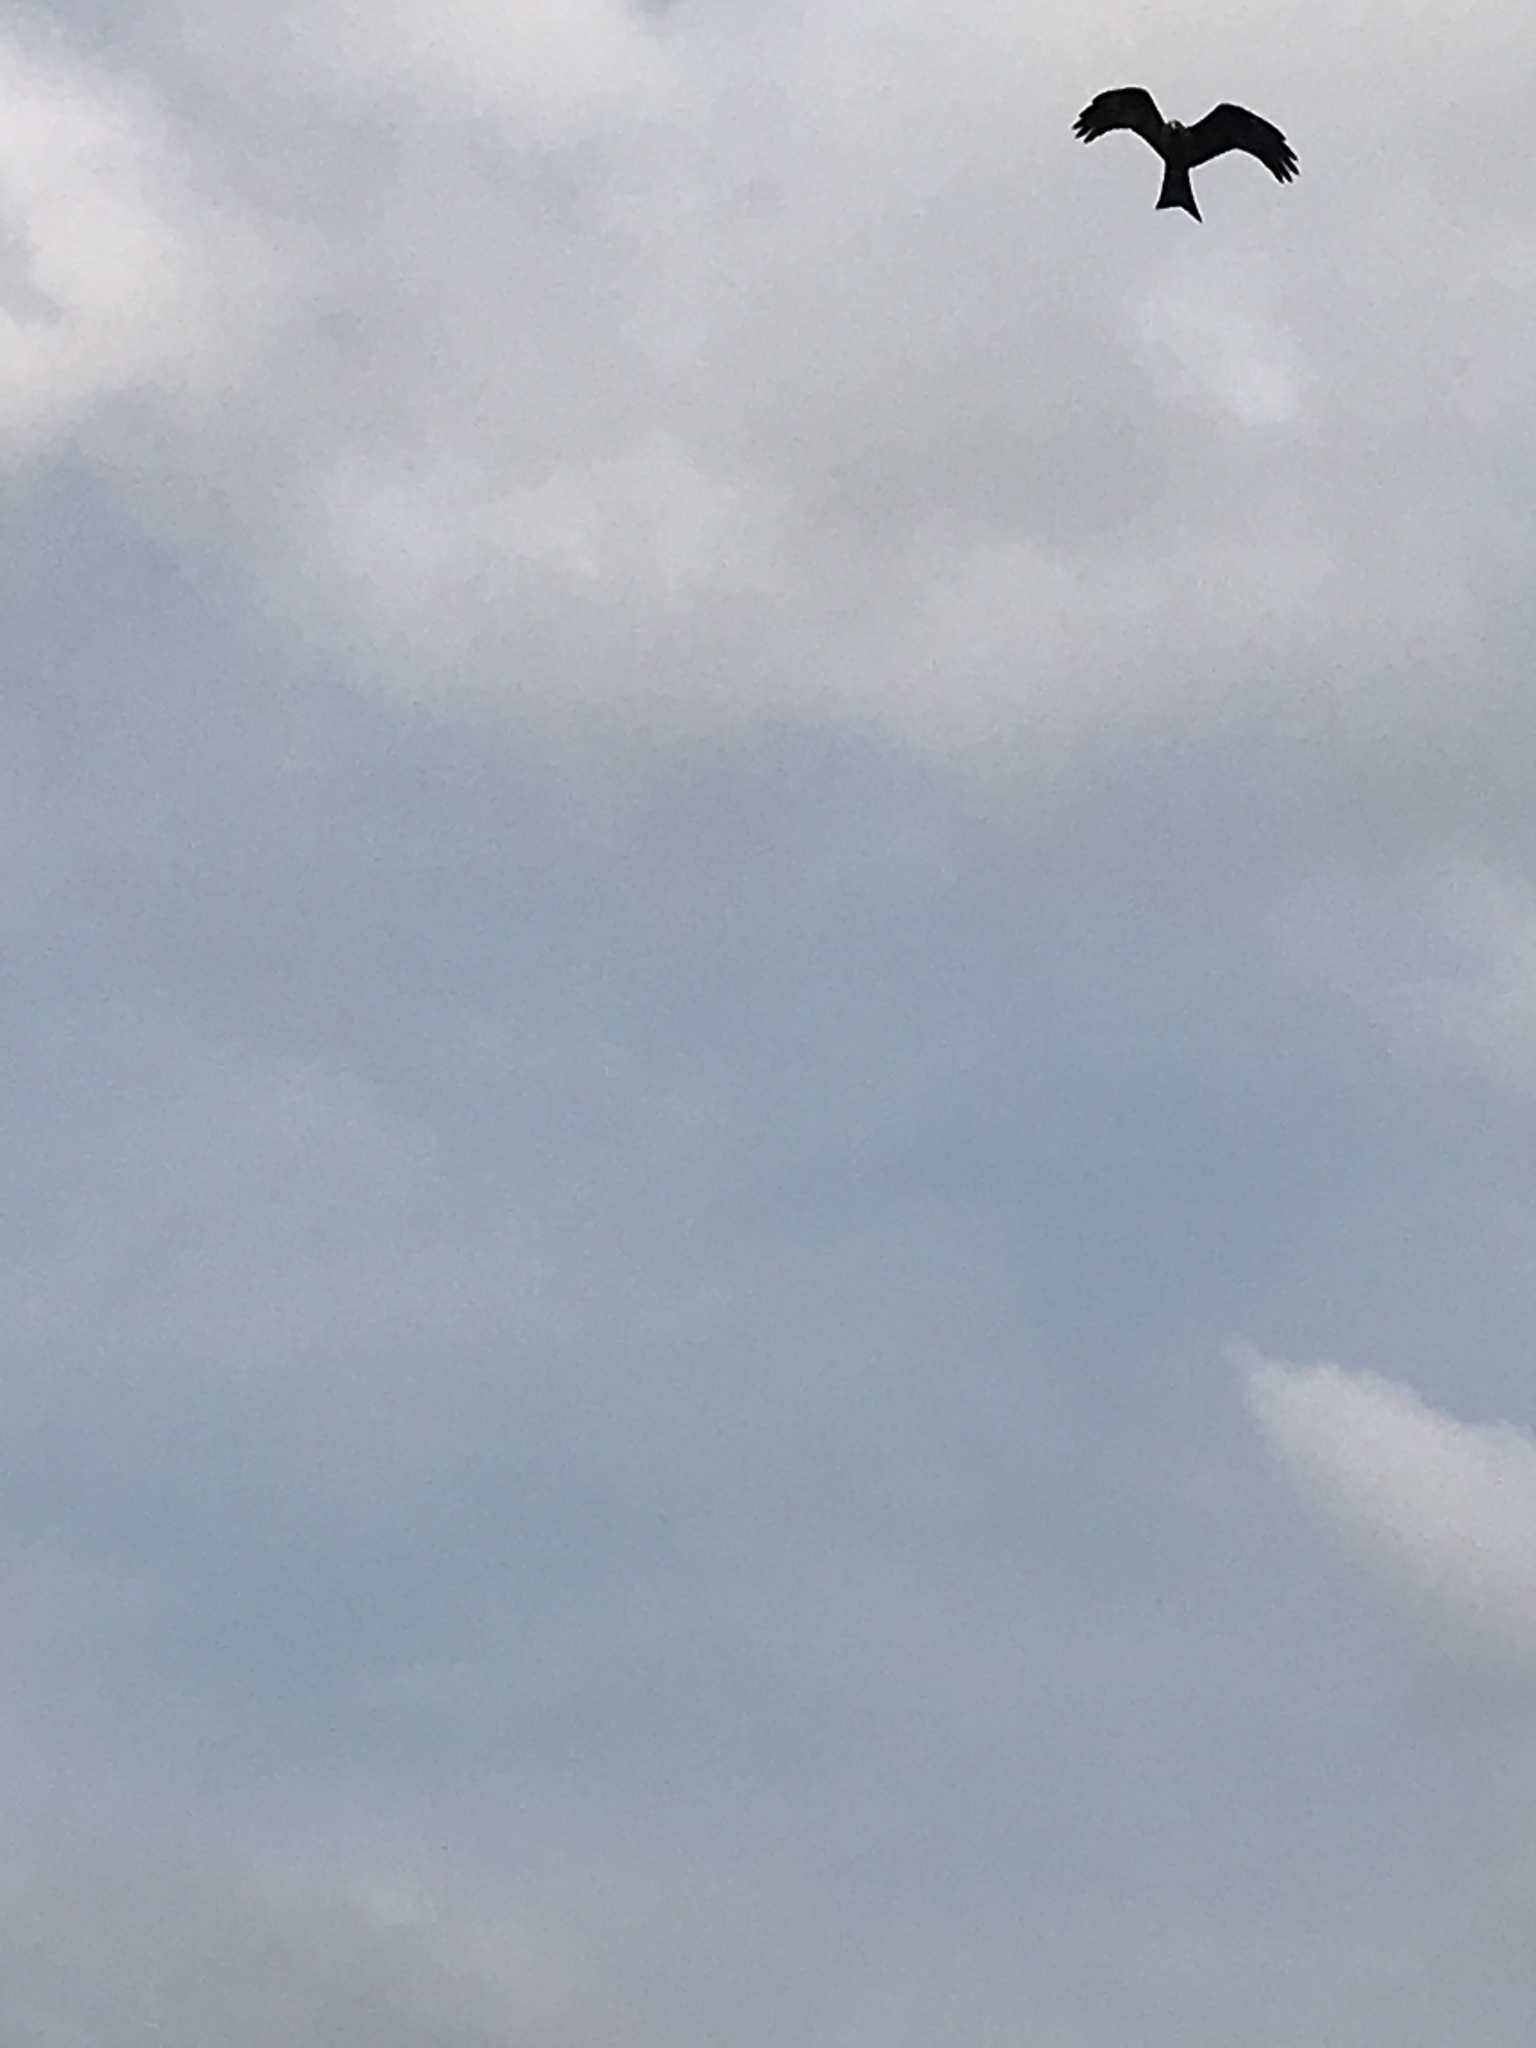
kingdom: Animalia
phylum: Chordata
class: Aves
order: Accipitriformes
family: Accipitridae
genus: Milvus
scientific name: Milvus migrans
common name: Black kite
